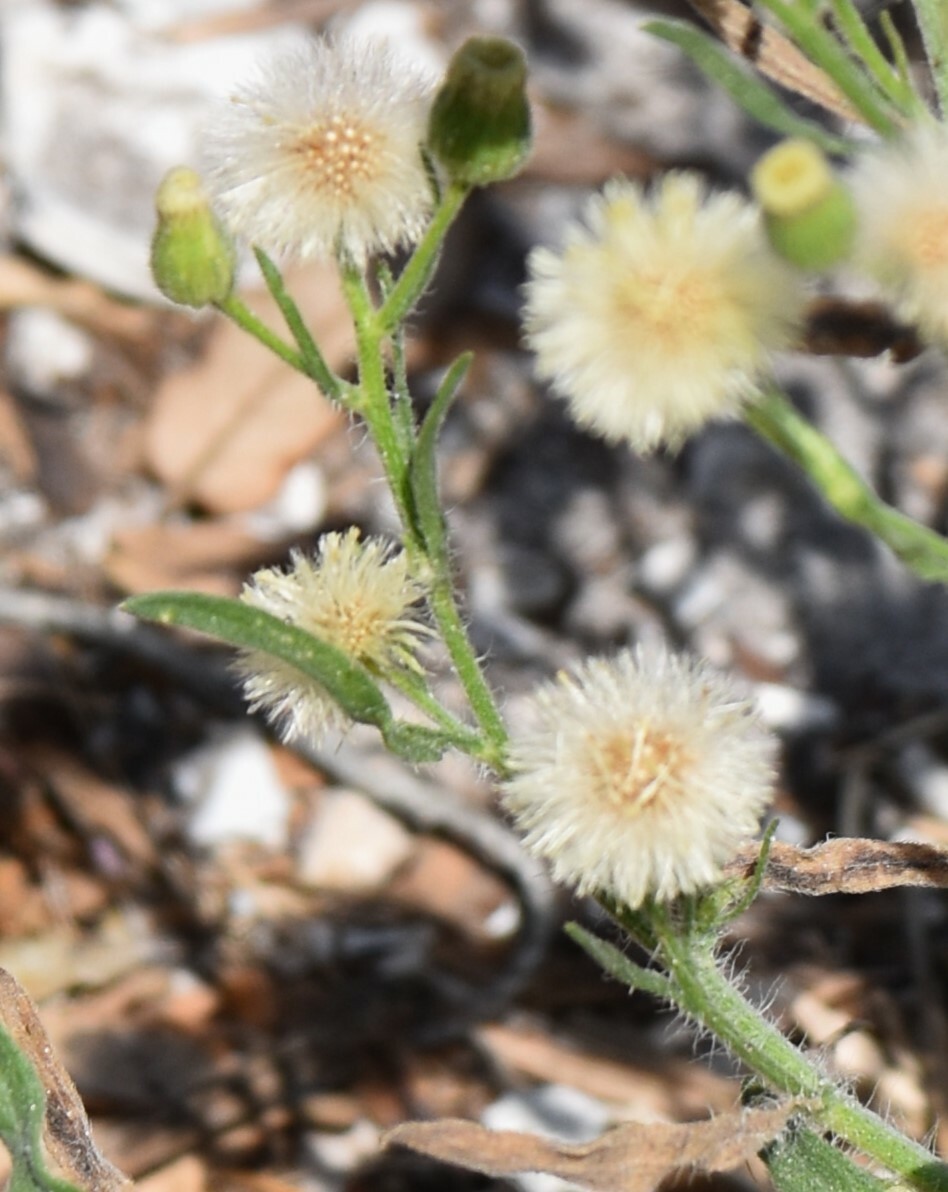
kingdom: Plantae
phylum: Tracheophyta
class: Magnoliopsida
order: Asterales
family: Asteraceae
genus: Erigeron
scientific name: Erigeron bonariensis
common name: Argentine fleabane
